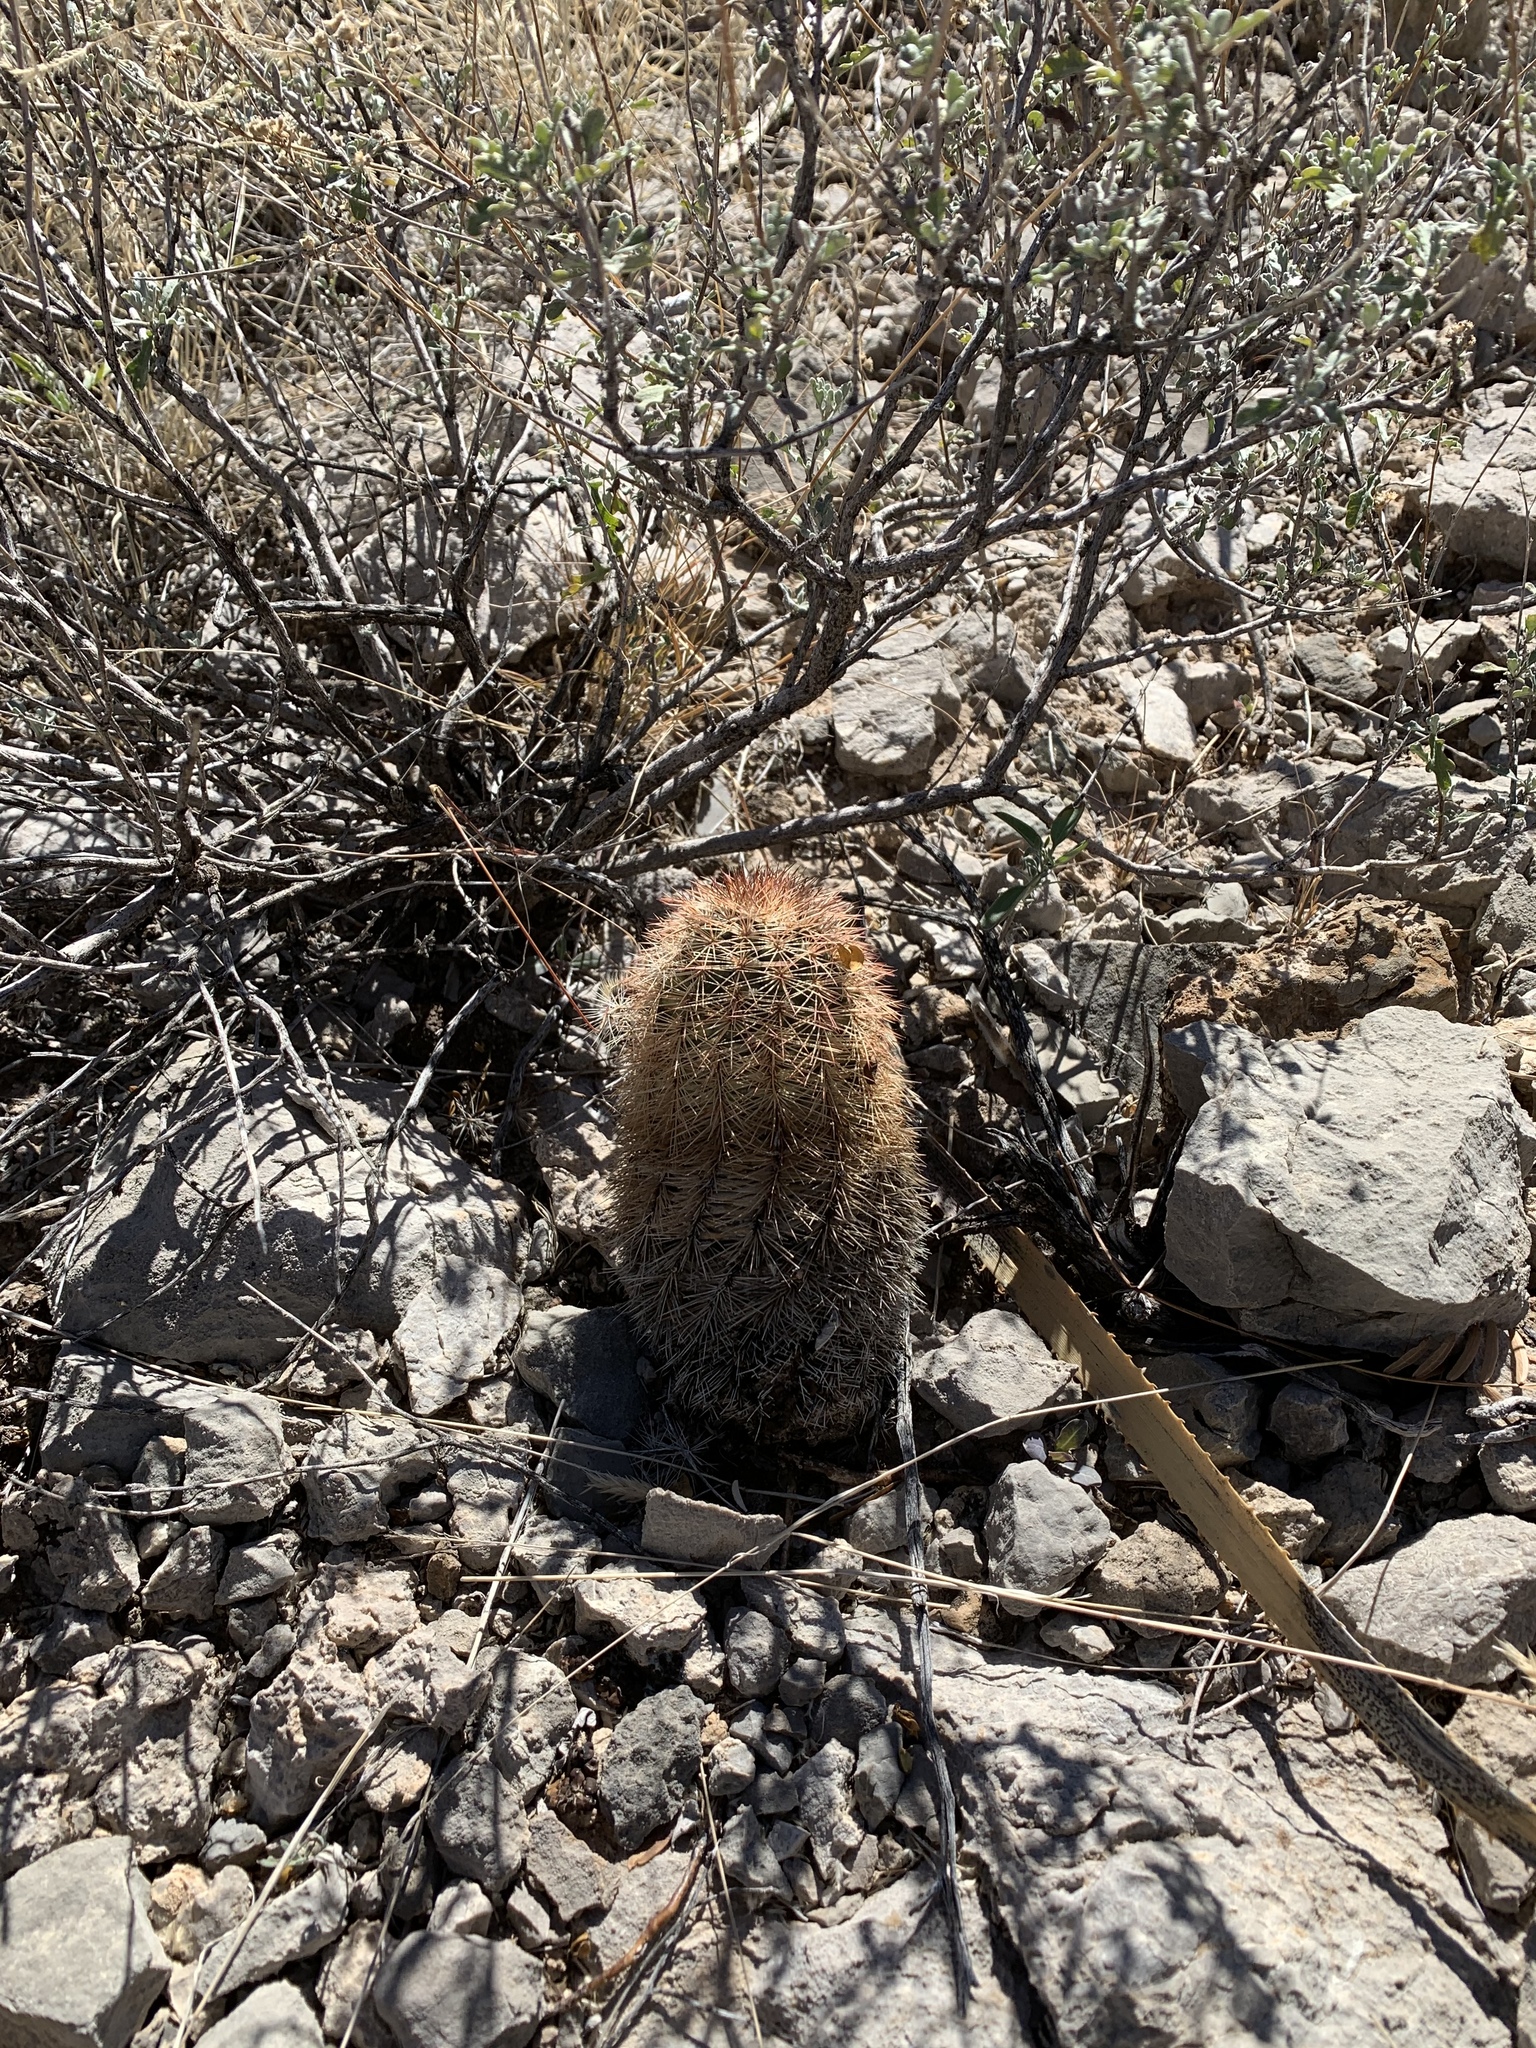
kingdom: Plantae
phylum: Tracheophyta
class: Magnoliopsida
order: Caryophyllales
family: Cactaceae
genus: Echinocereus
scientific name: Echinocereus dasyacanthus
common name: Spiny hedgehog cactus
